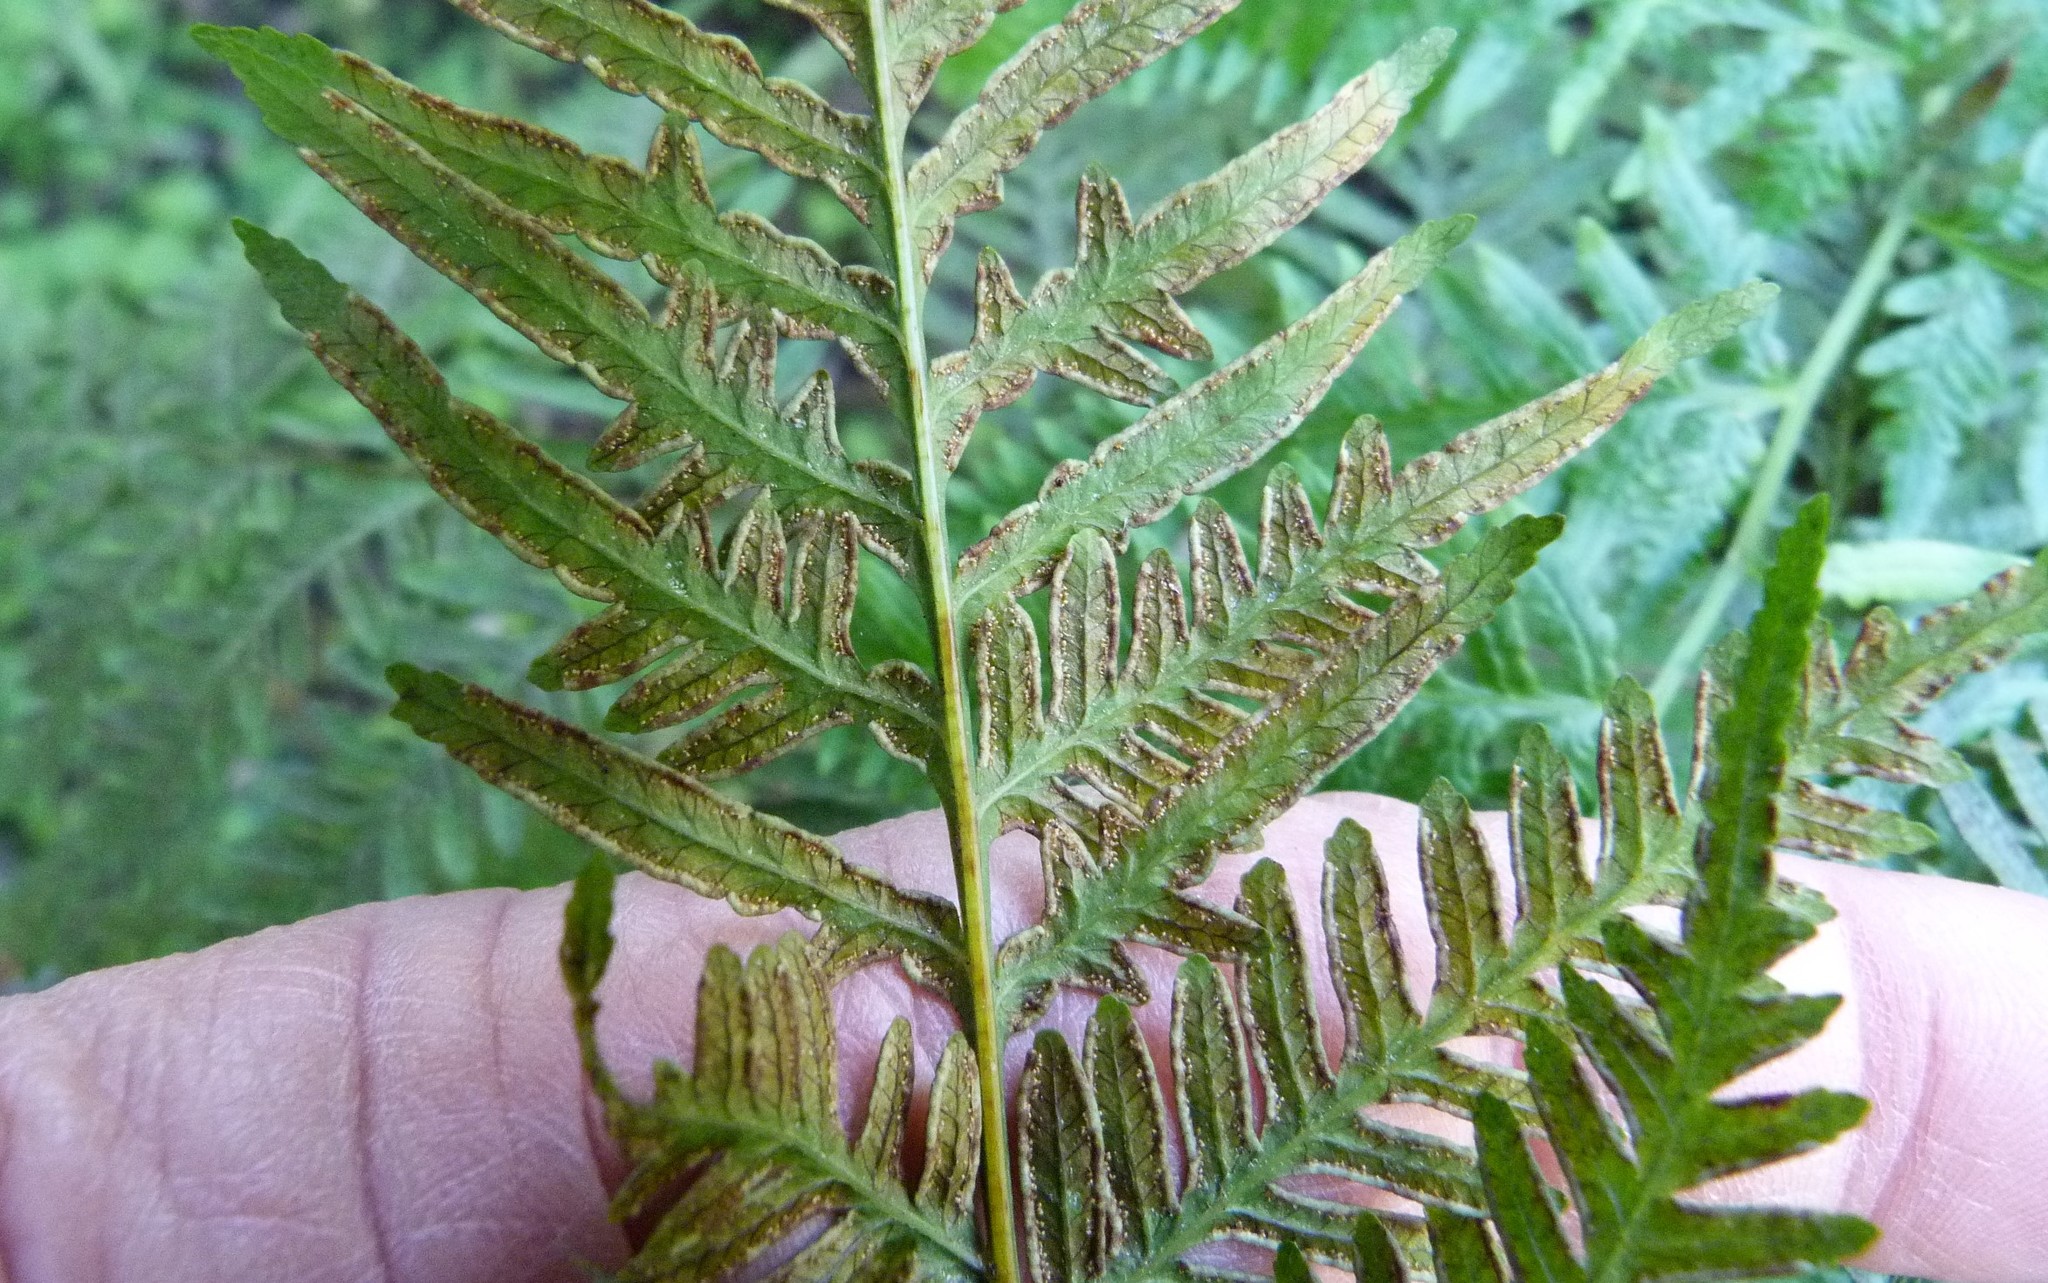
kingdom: Plantae
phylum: Tracheophyta
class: Polypodiopsida
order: Polypodiales
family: Pteridaceae
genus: Pteris
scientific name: Pteris tremula
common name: Australian brake
